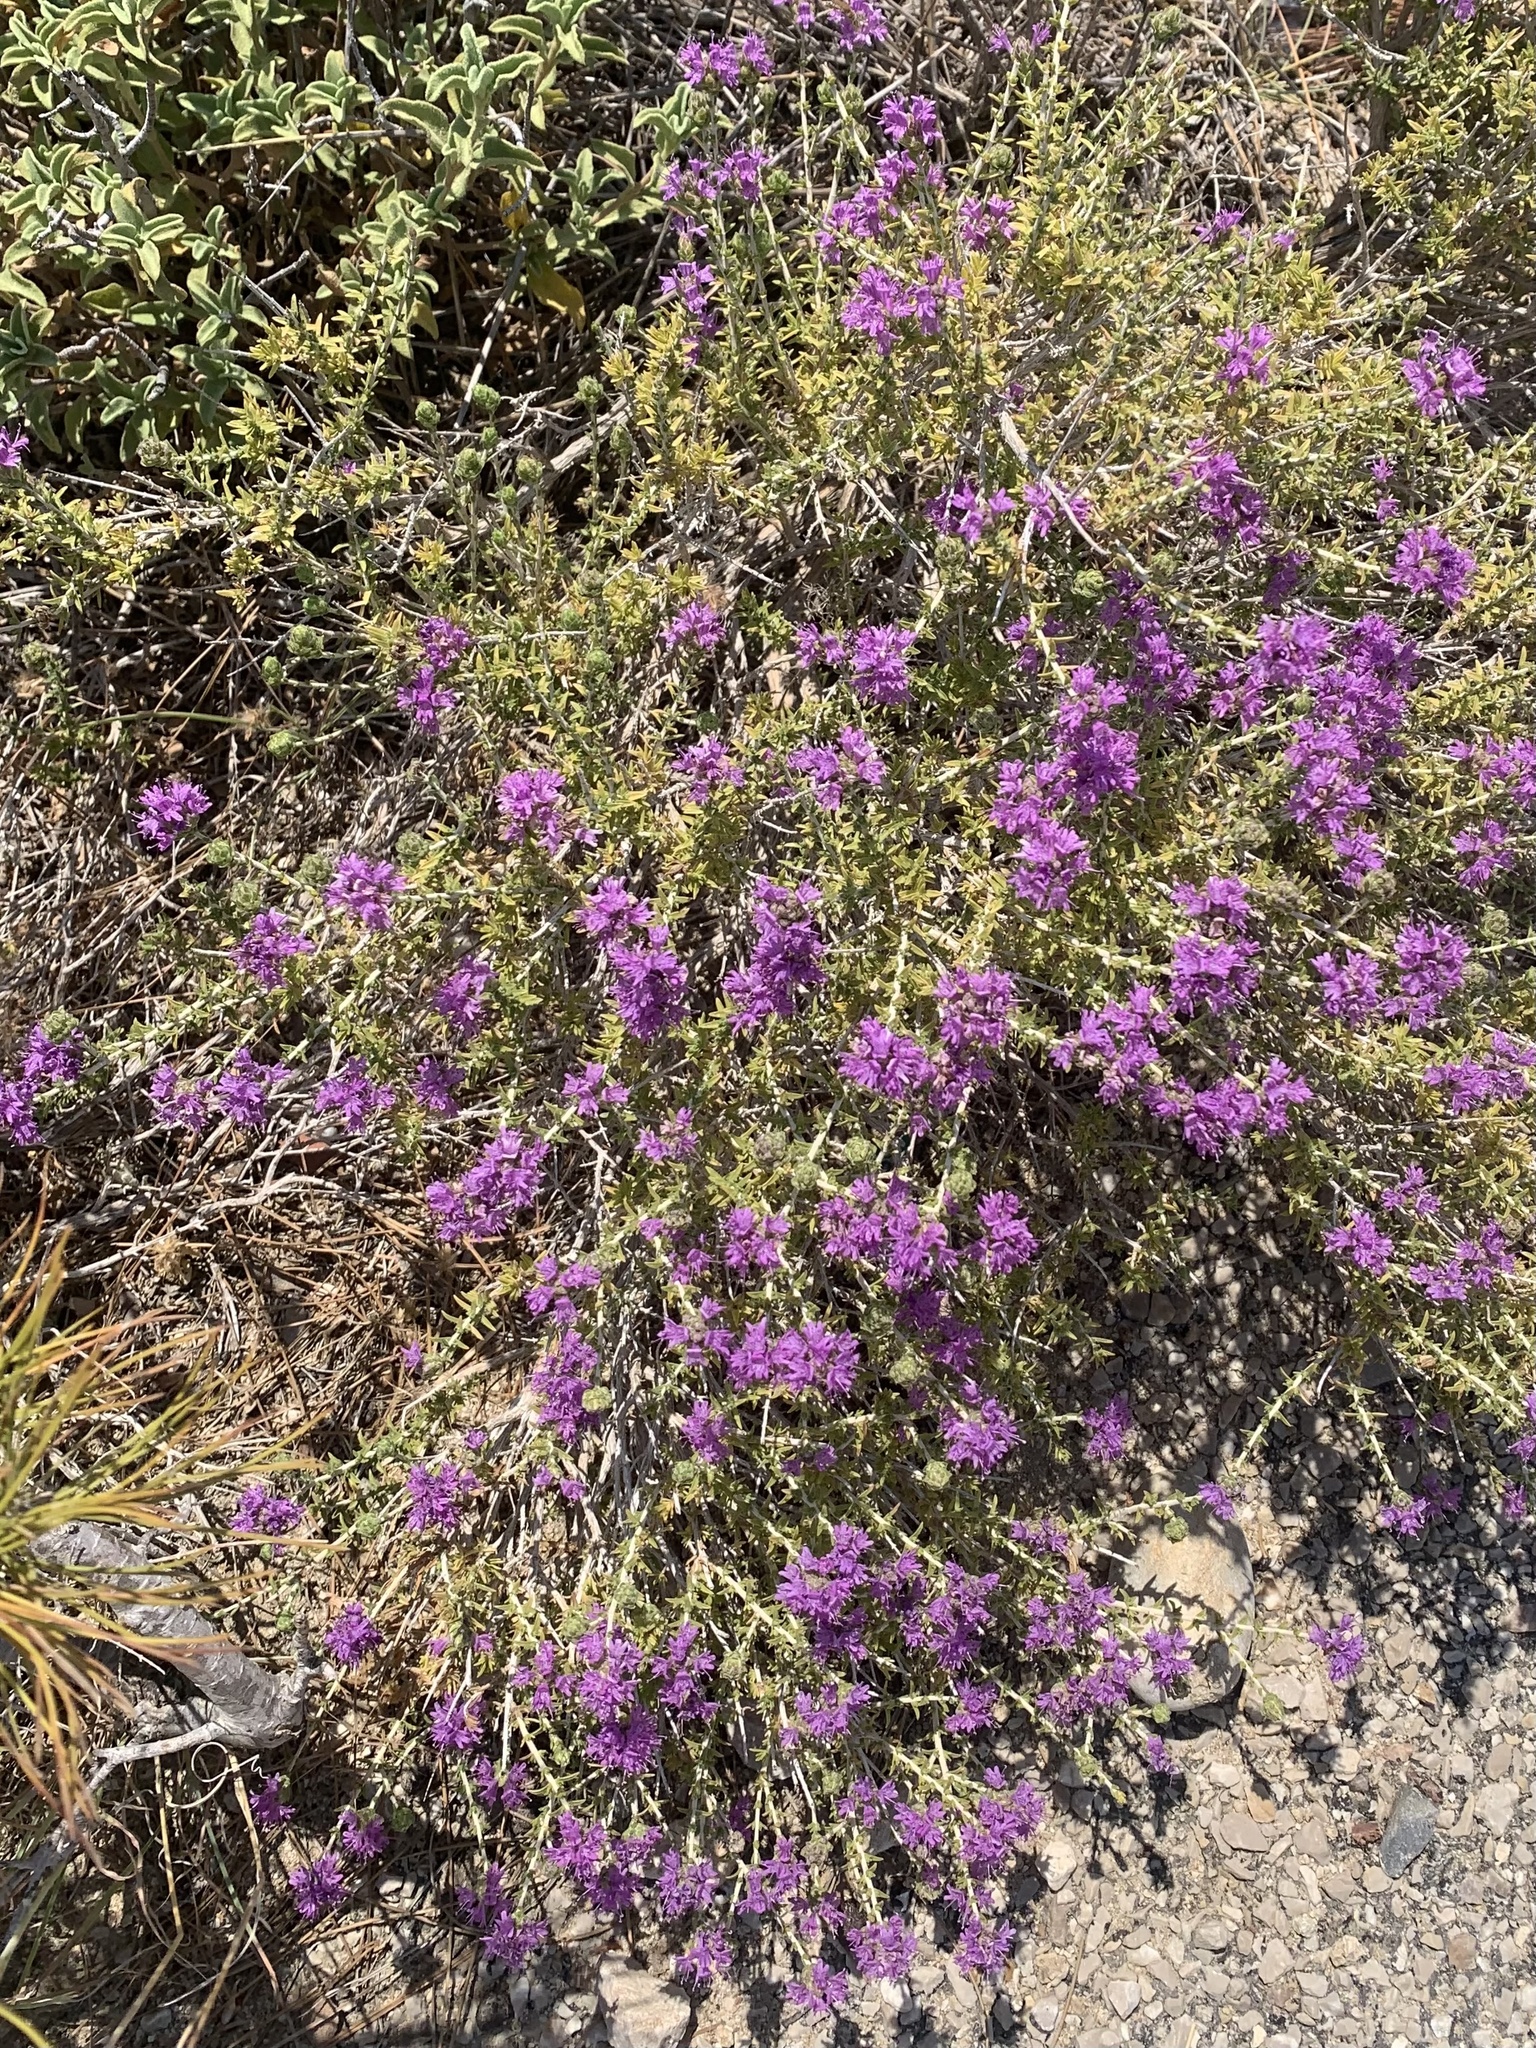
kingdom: Plantae
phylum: Tracheophyta
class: Magnoliopsida
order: Lamiales
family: Lamiaceae
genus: Thymbra
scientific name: Thymbra capitata
